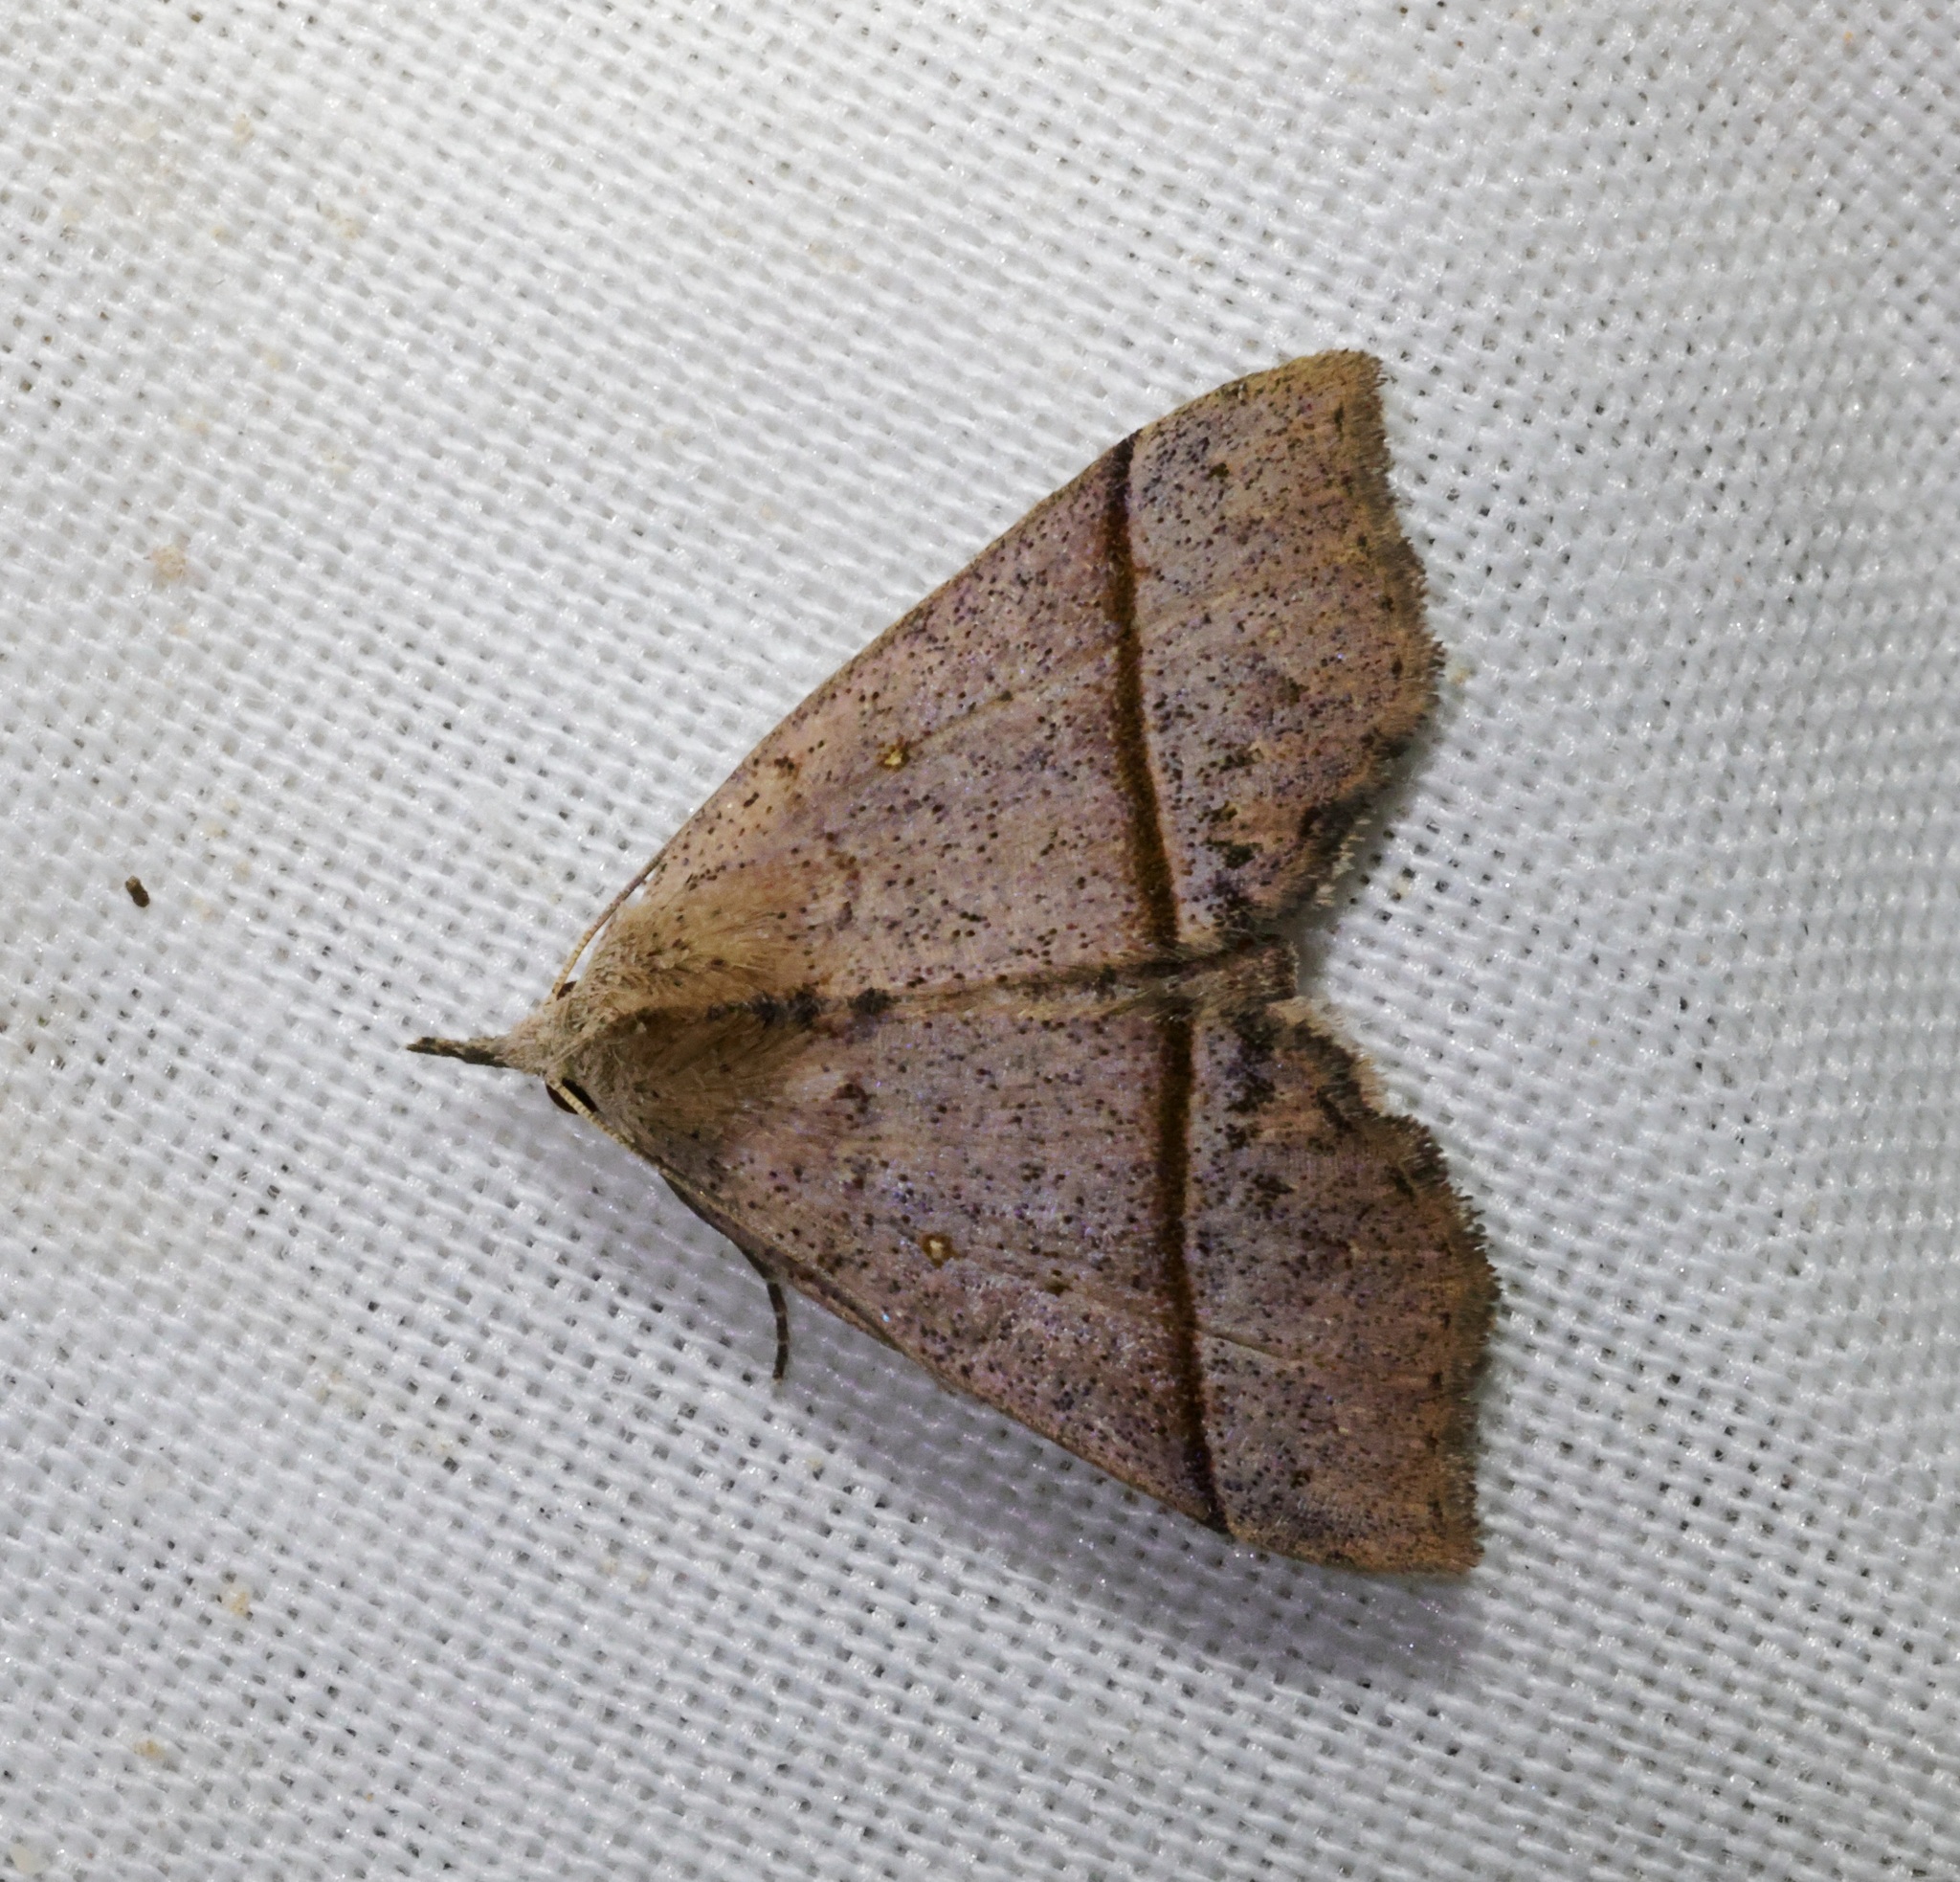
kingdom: Animalia
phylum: Arthropoda
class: Insecta
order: Lepidoptera
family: Erebidae
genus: Hepatica
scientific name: Hepatica irrorata
